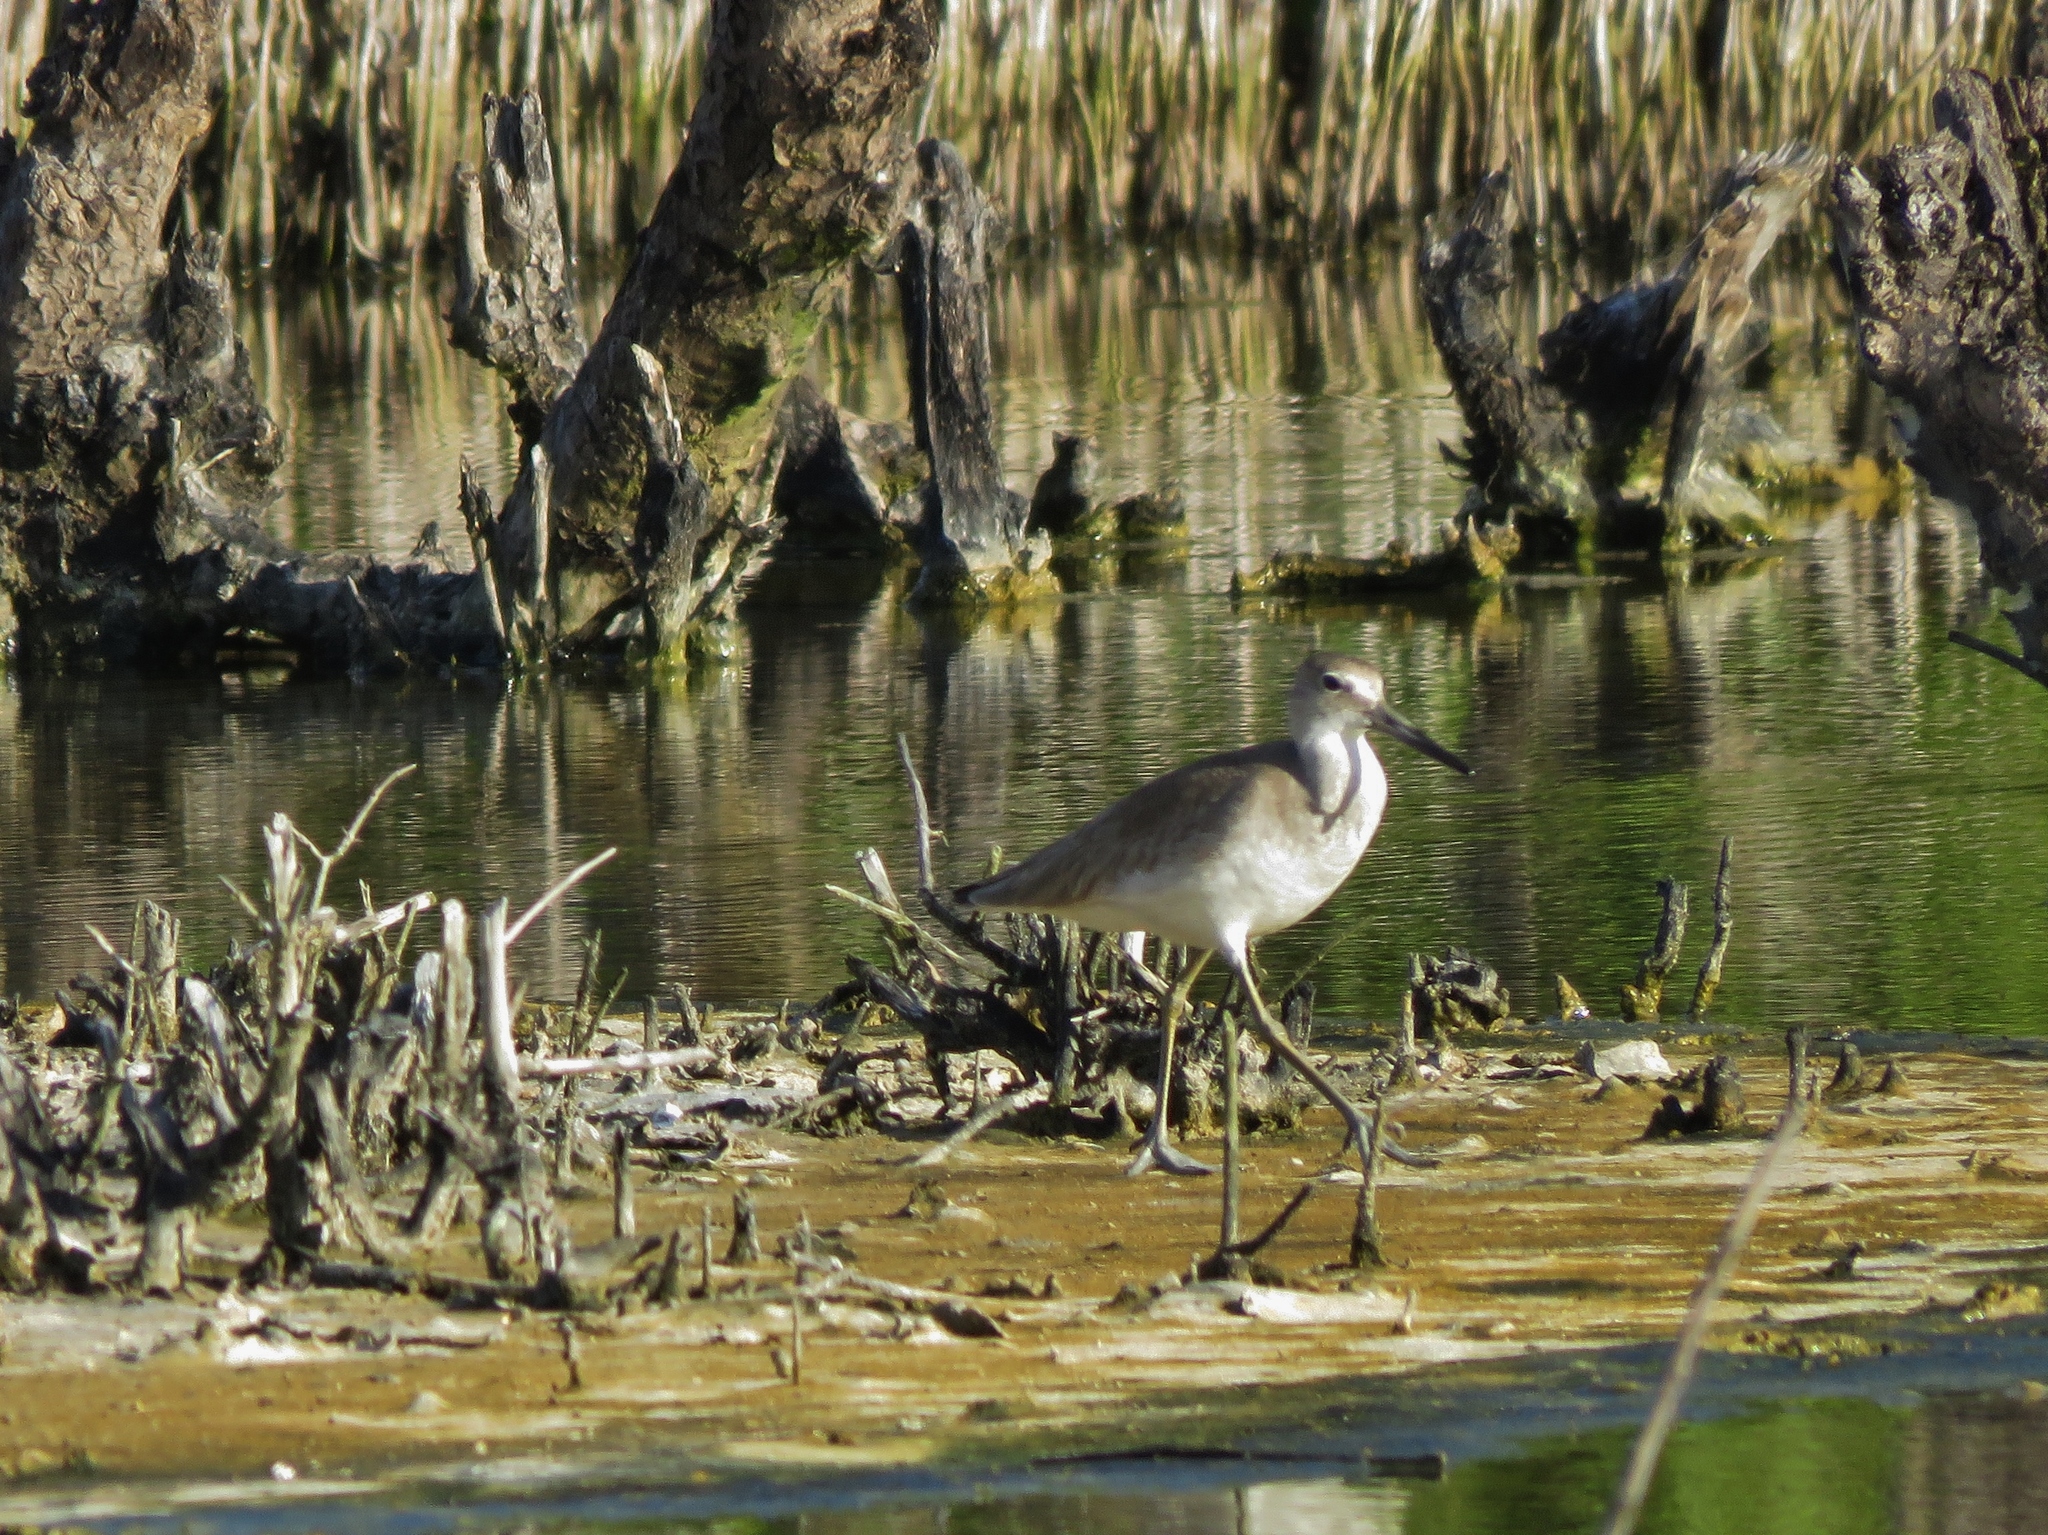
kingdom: Animalia
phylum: Chordata
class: Aves
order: Charadriiformes
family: Scolopacidae
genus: Tringa
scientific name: Tringa semipalmata
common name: Willet
